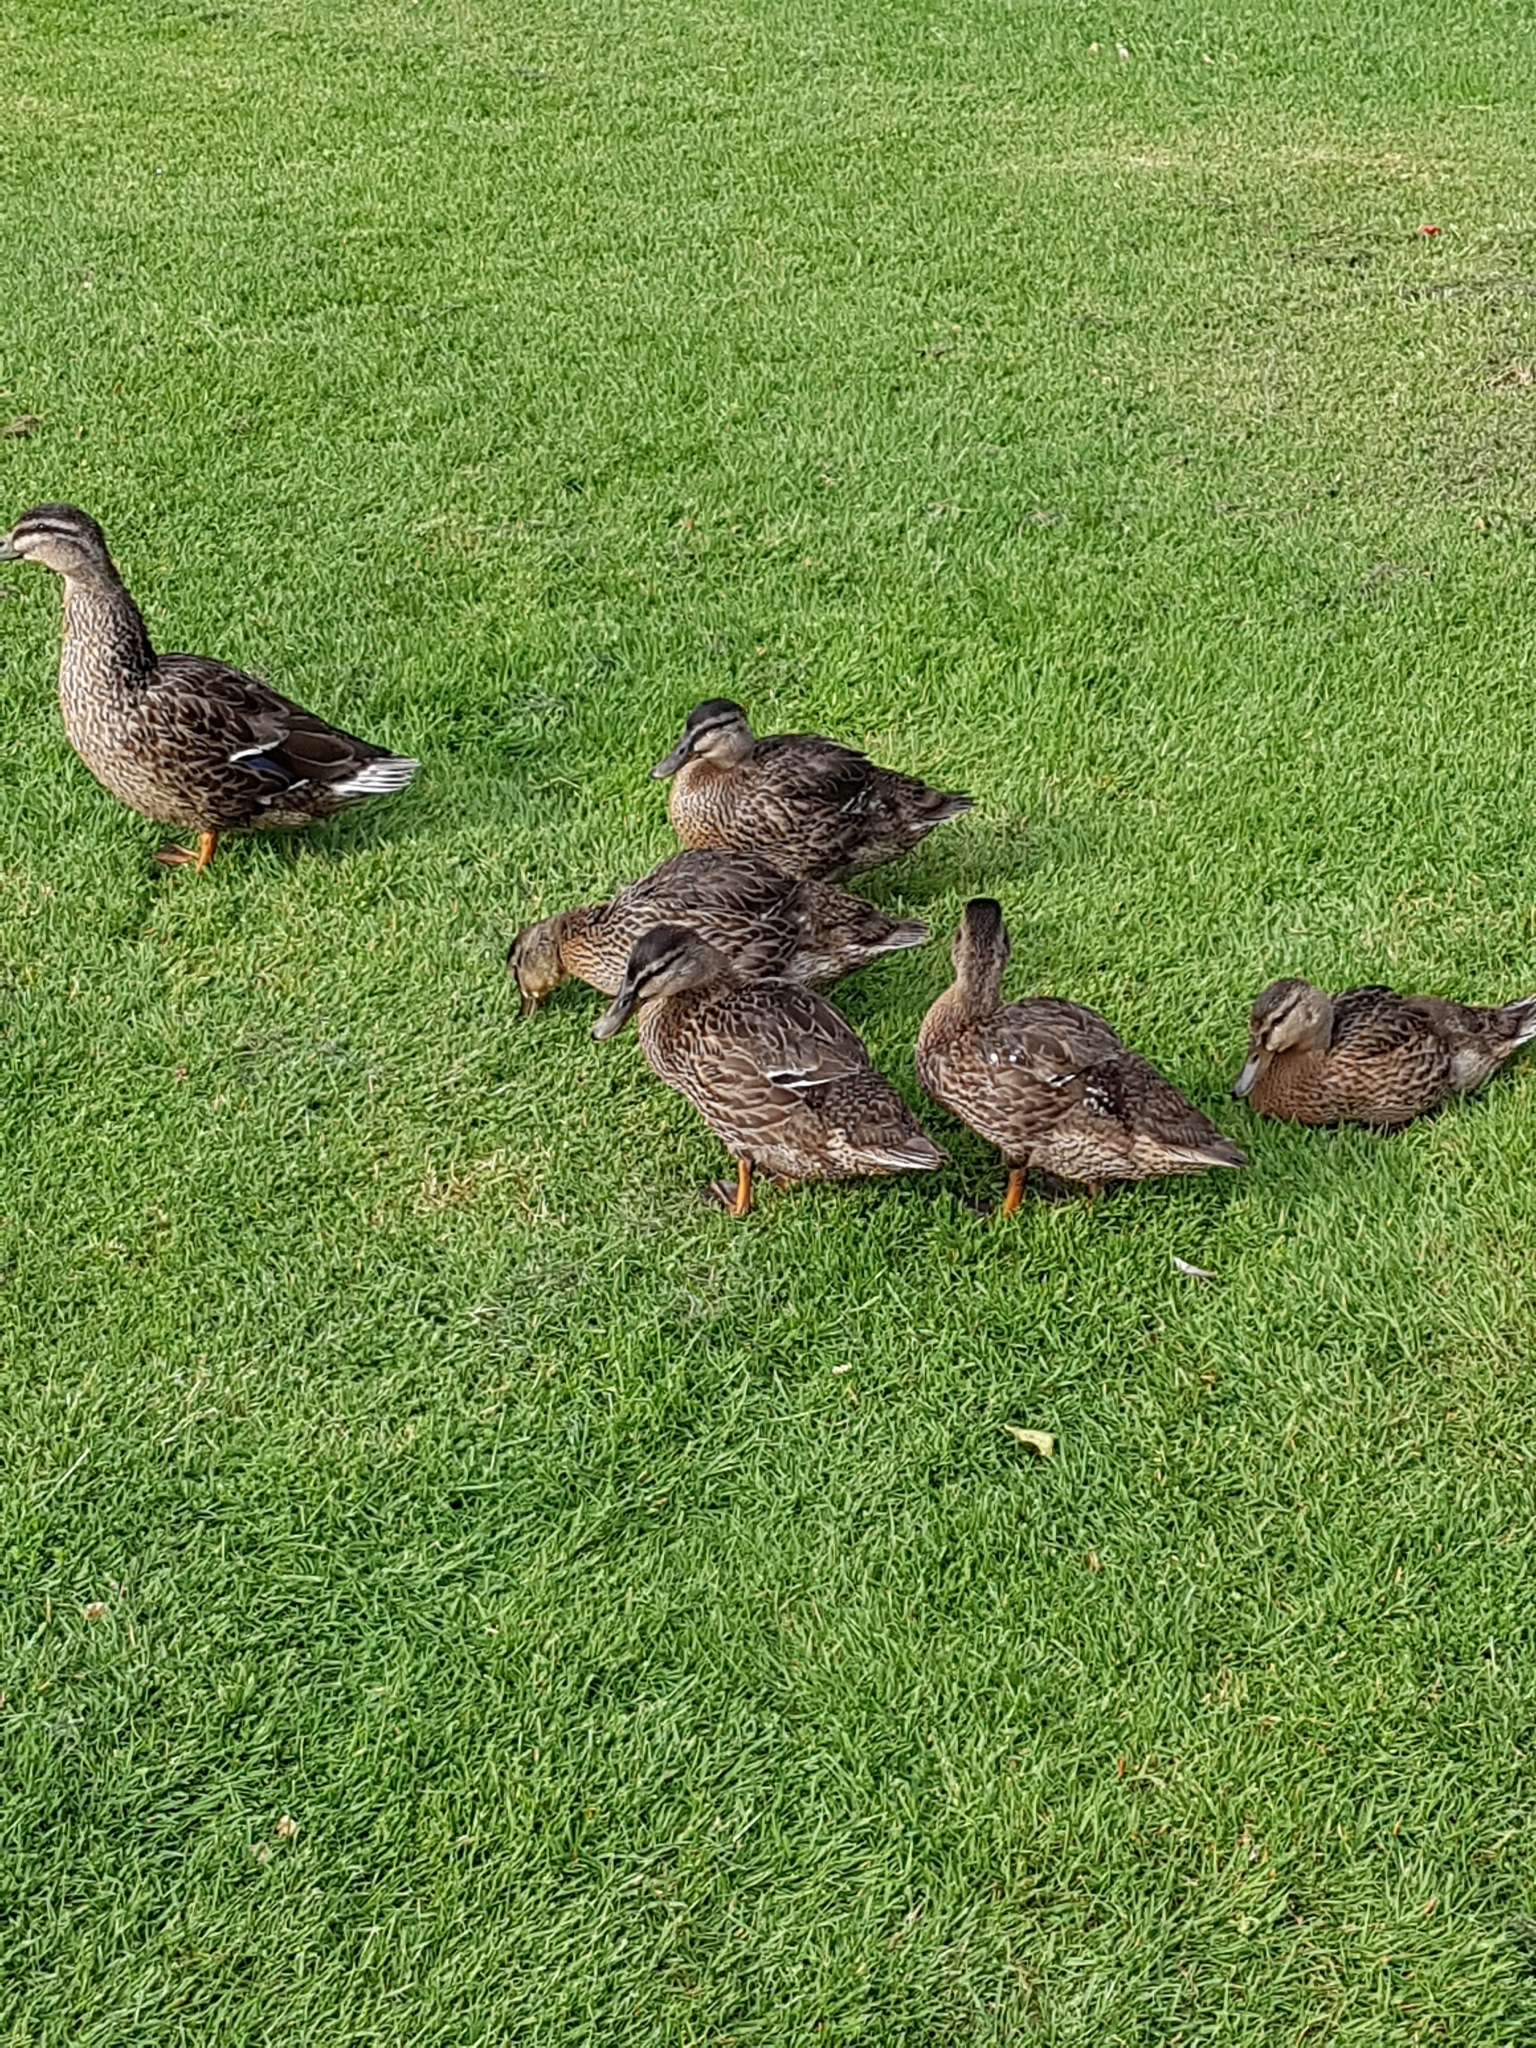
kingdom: Animalia
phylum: Chordata
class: Aves
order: Anseriformes
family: Anatidae
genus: Anas
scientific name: Anas platyrhynchos
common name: Mallard
